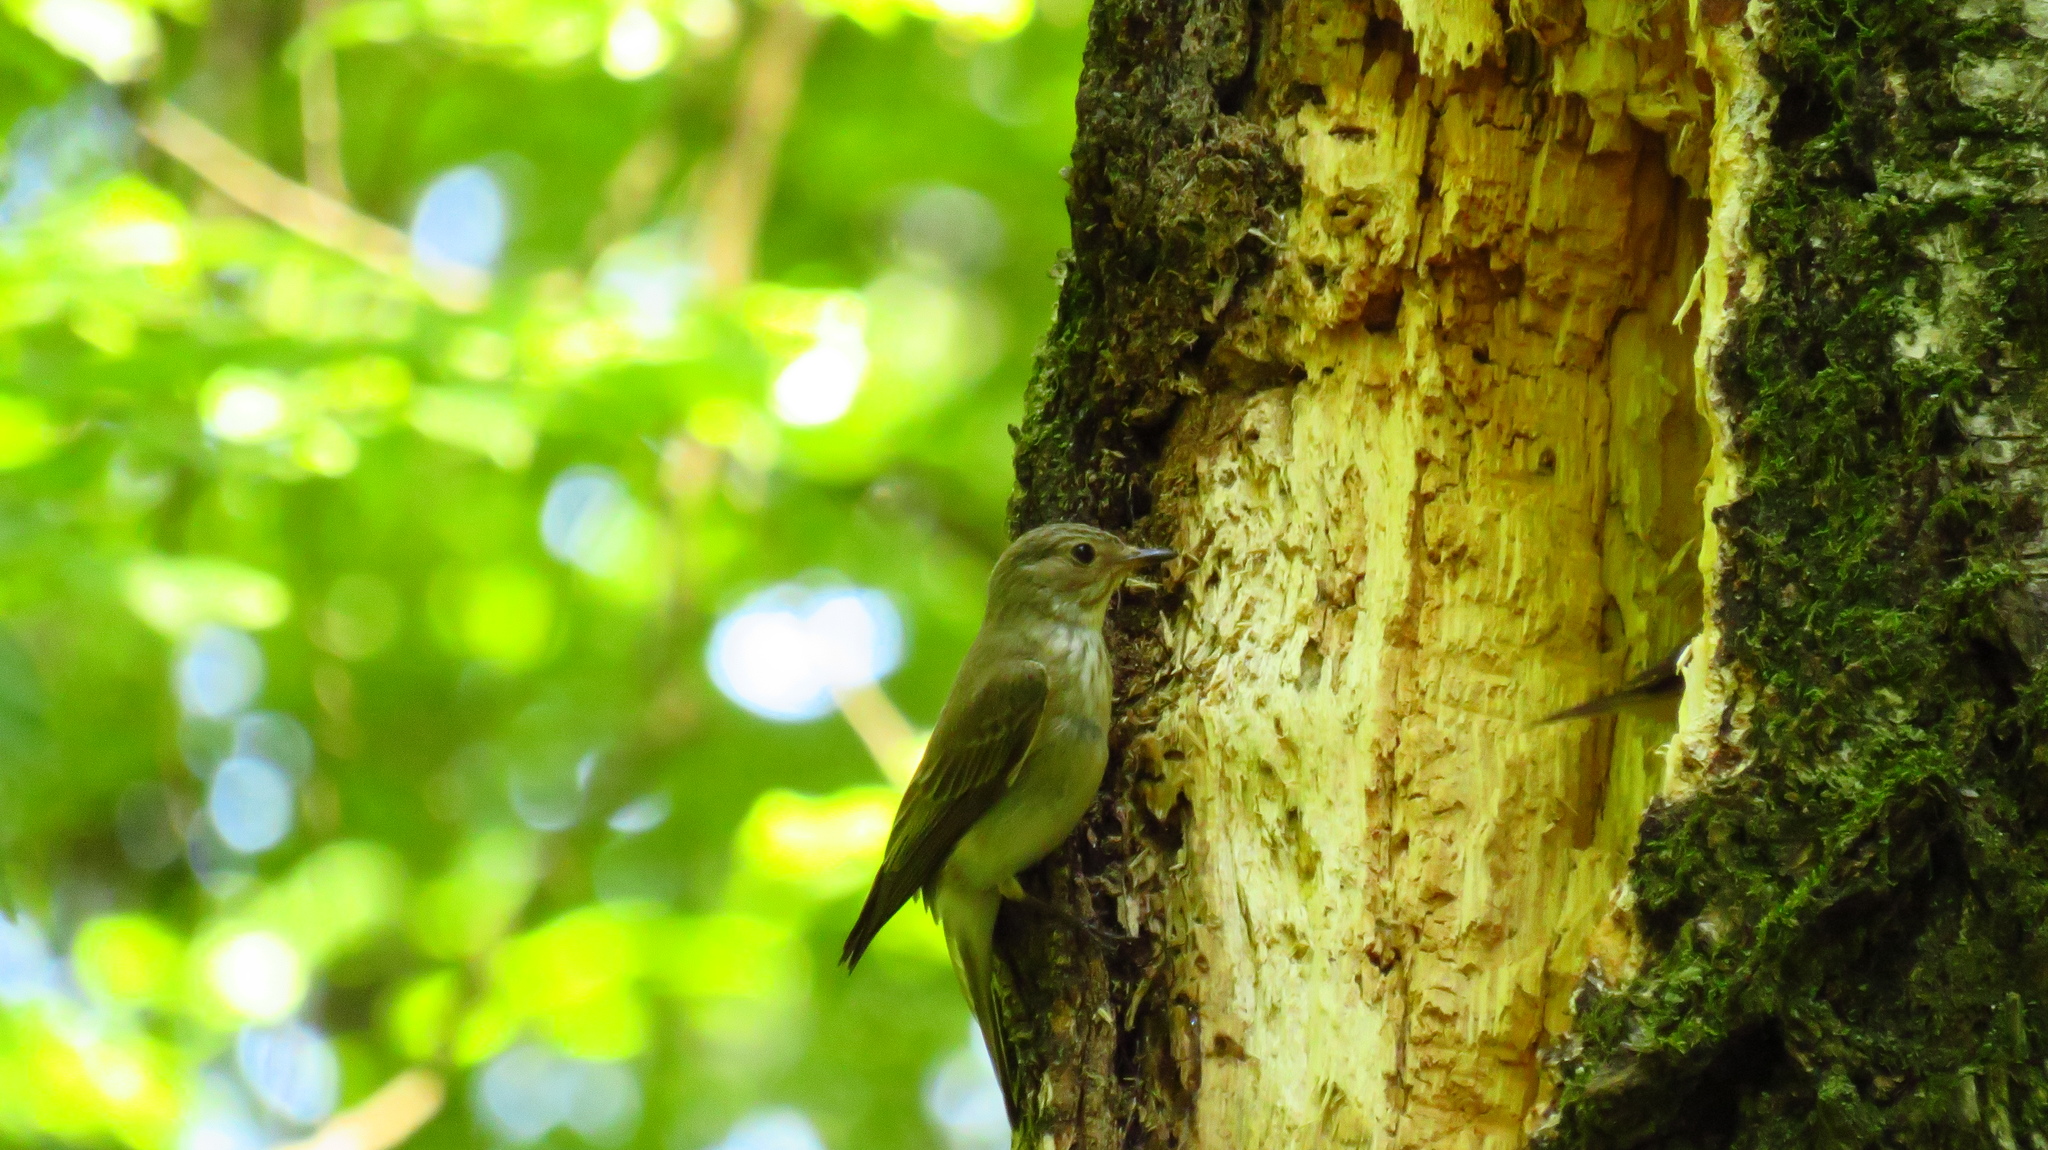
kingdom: Animalia
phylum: Chordata
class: Aves
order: Passeriformes
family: Muscicapidae
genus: Muscicapa
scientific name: Muscicapa striata
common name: Spotted flycatcher
